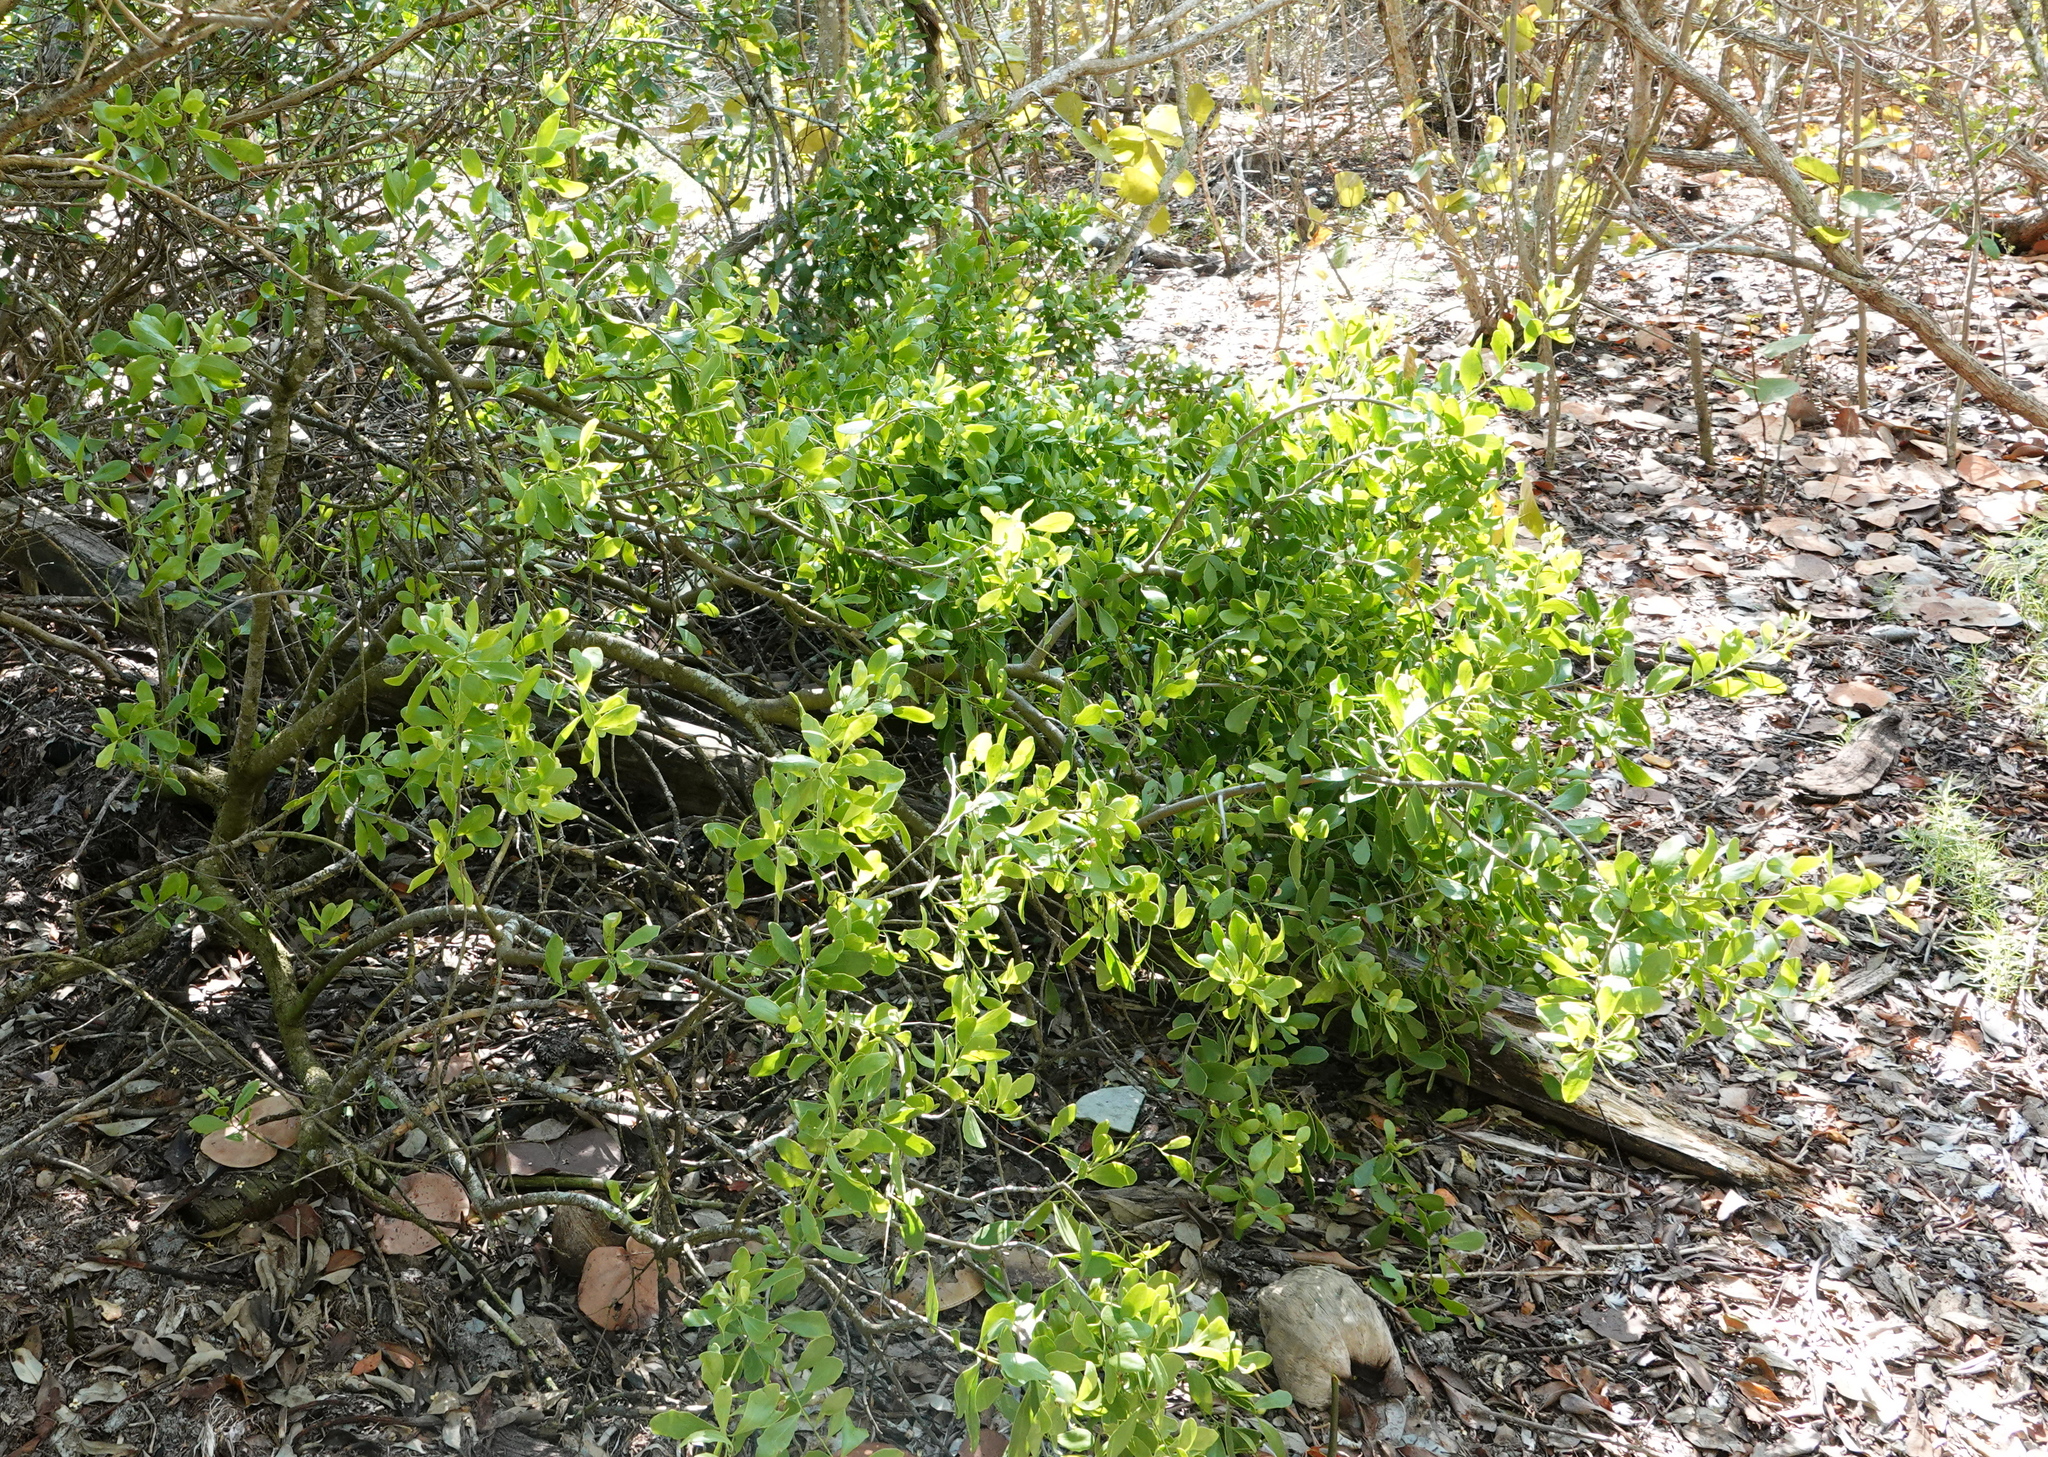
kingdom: Plantae
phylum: Tracheophyta
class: Magnoliopsida
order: Celastrales
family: Celastraceae
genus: Tricerma
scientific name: Tricerma phyllanthoides
